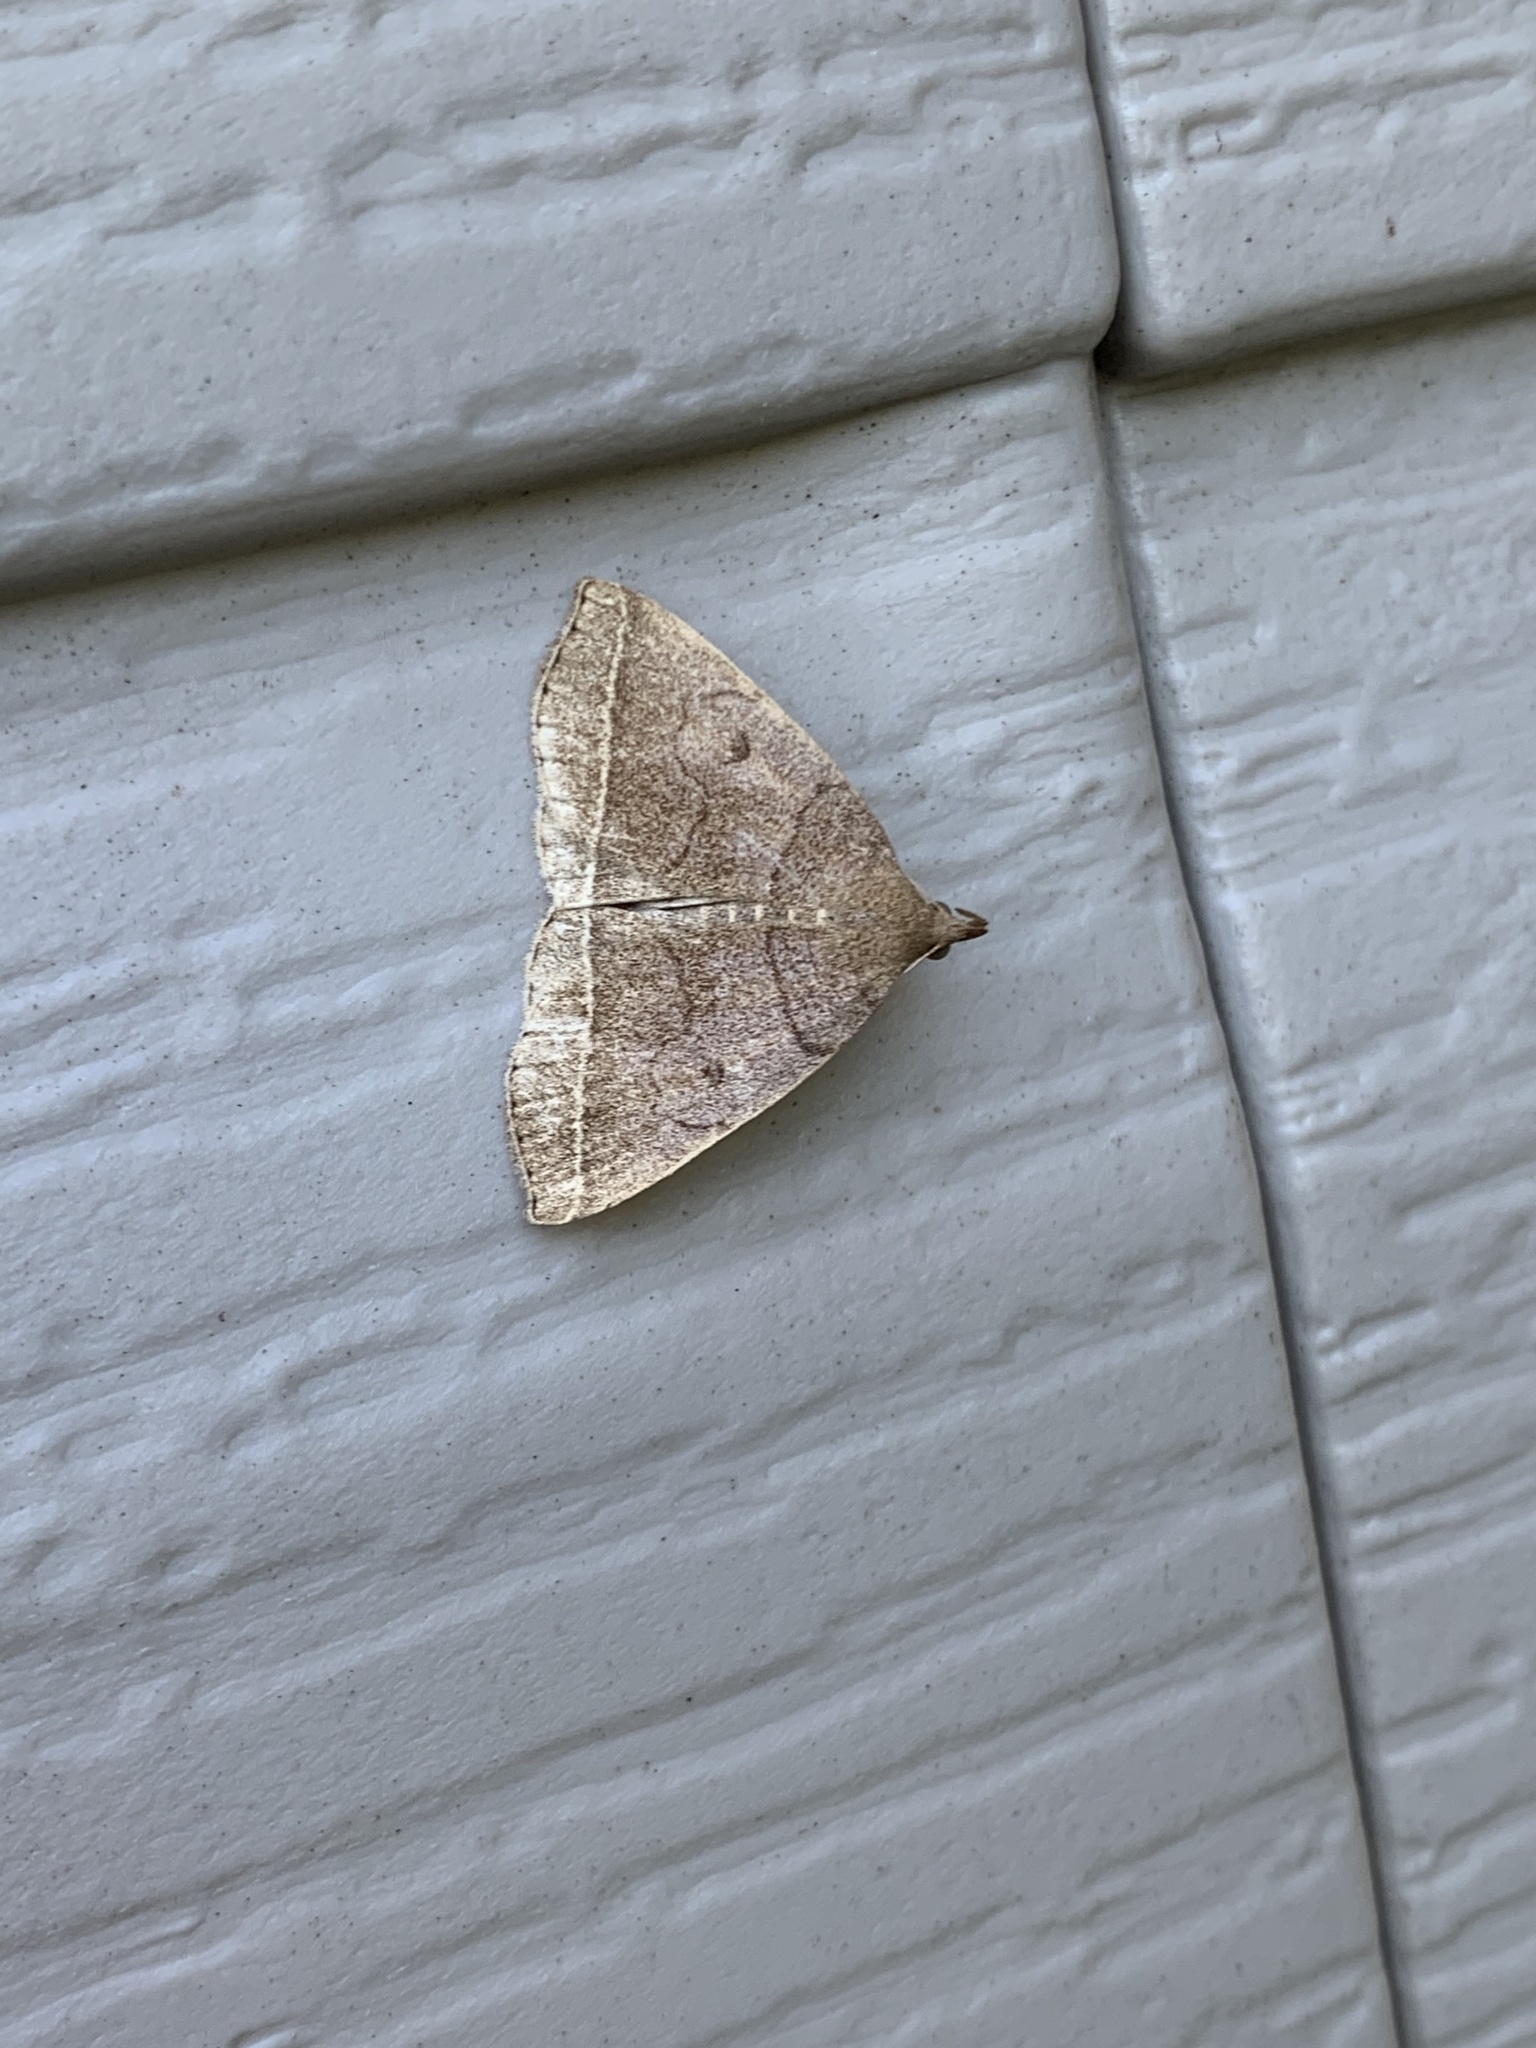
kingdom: Animalia
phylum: Arthropoda
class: Insecta
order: Lepidoptera
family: Erebidae
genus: Zanclognatha
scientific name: Zanclognatha obscuripennis
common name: Dark fan-foot
